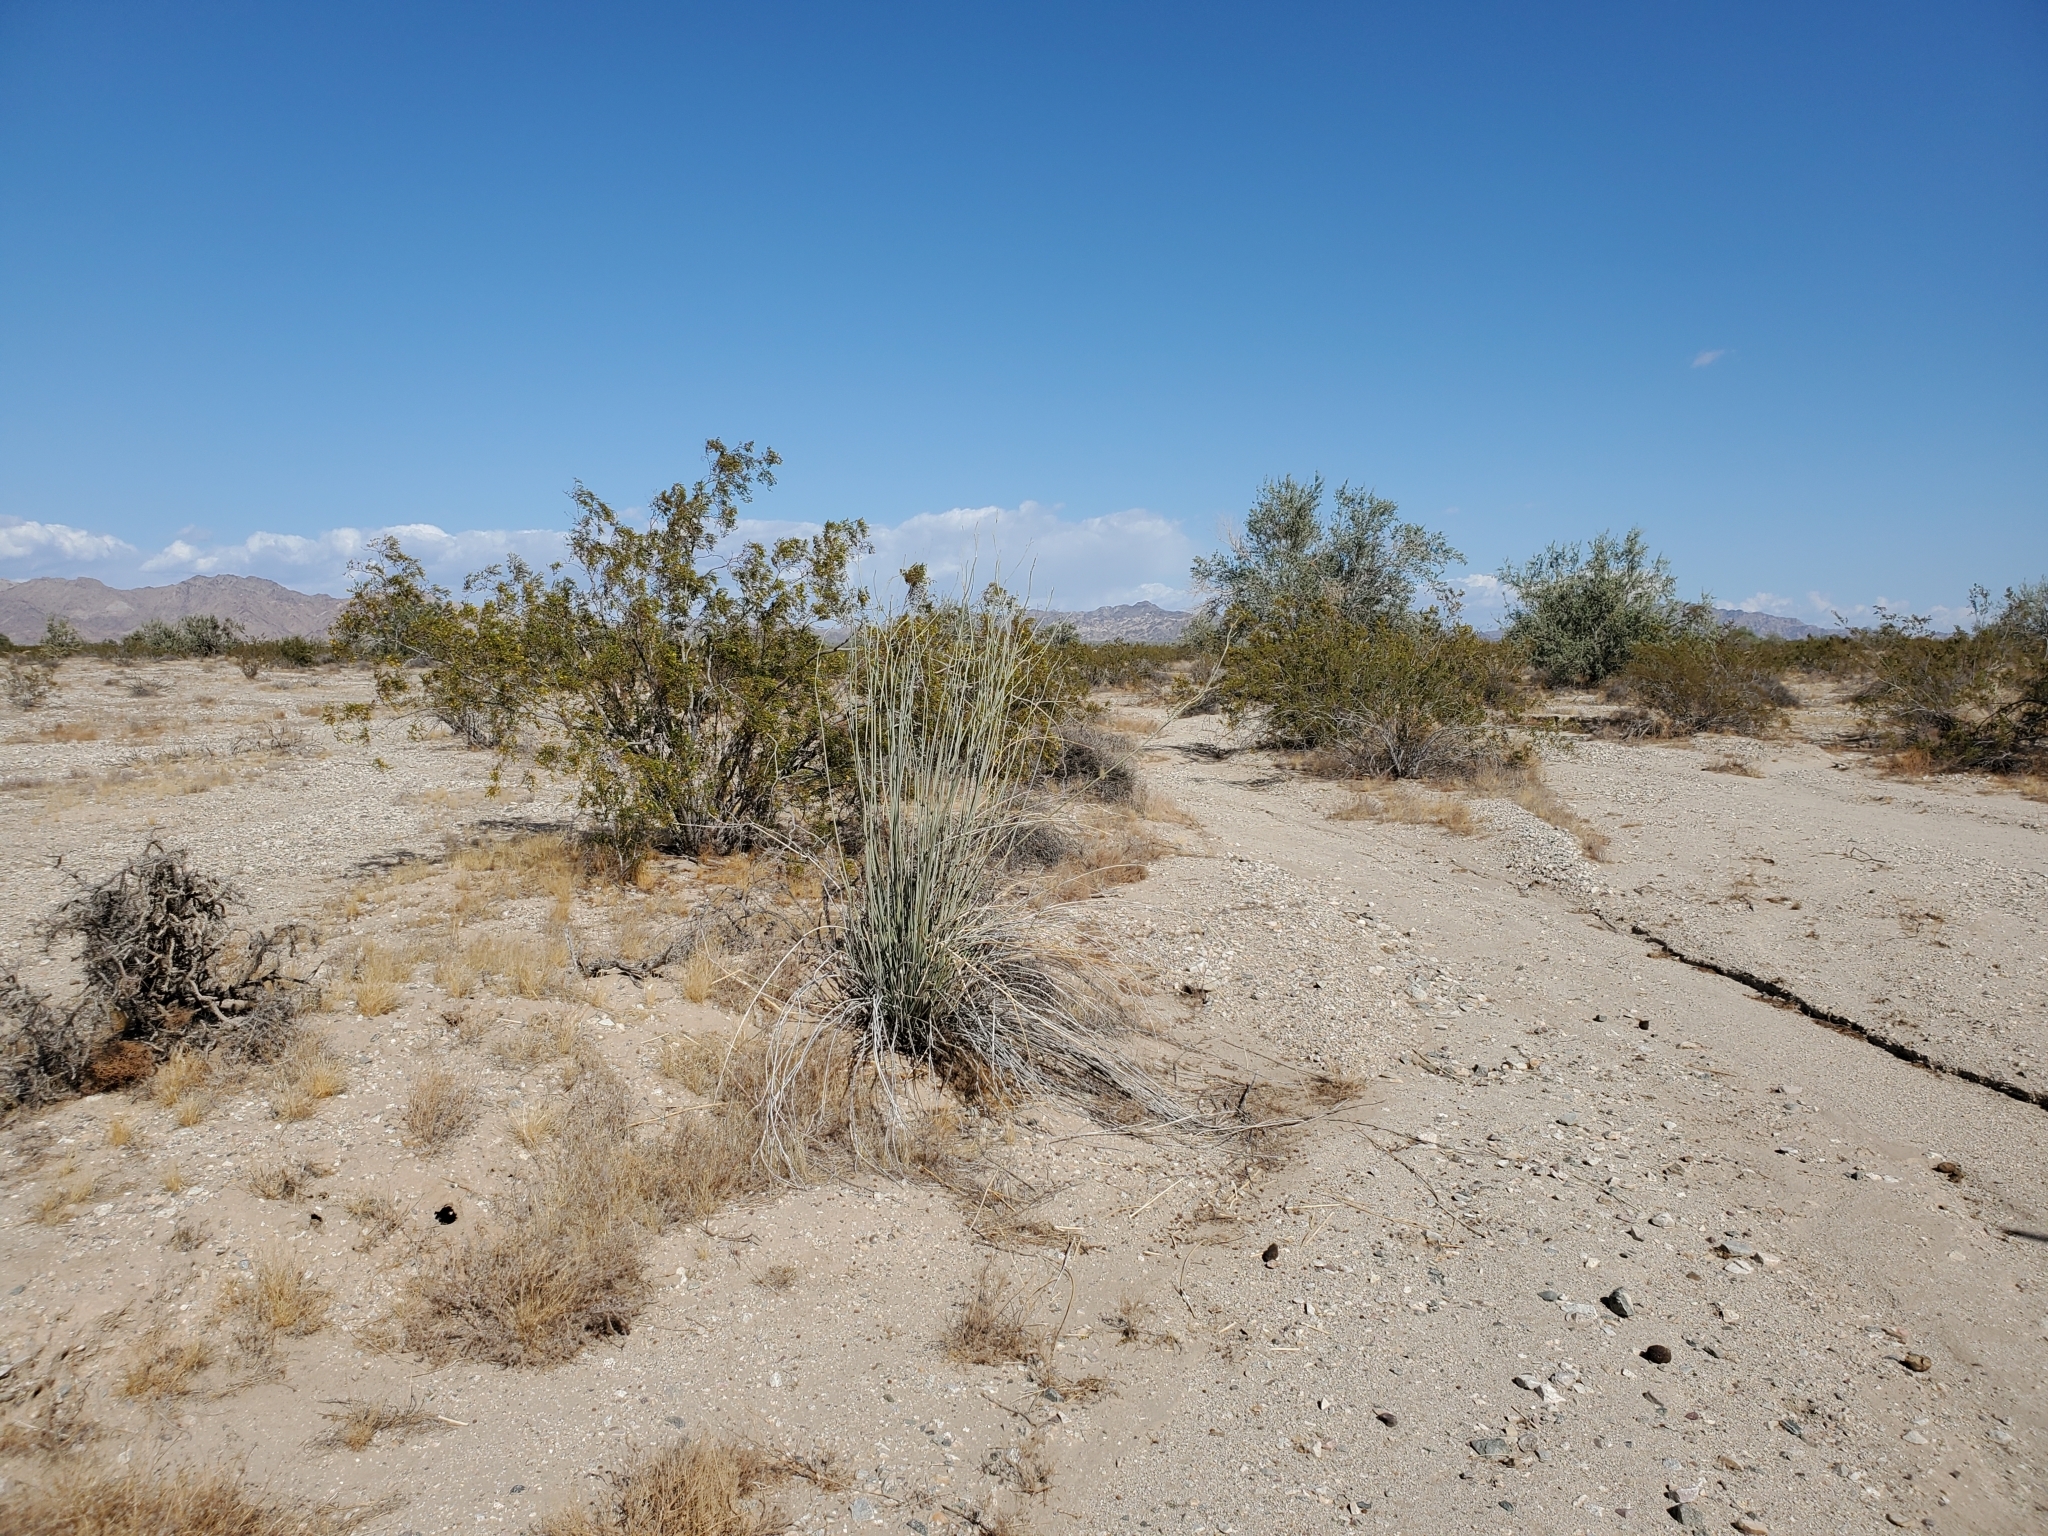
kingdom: Plantae
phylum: Tracheophyta
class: Magnoliopsida
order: Gentianales
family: Apocynaceae
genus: Asclepias
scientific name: Asclepias subulata
